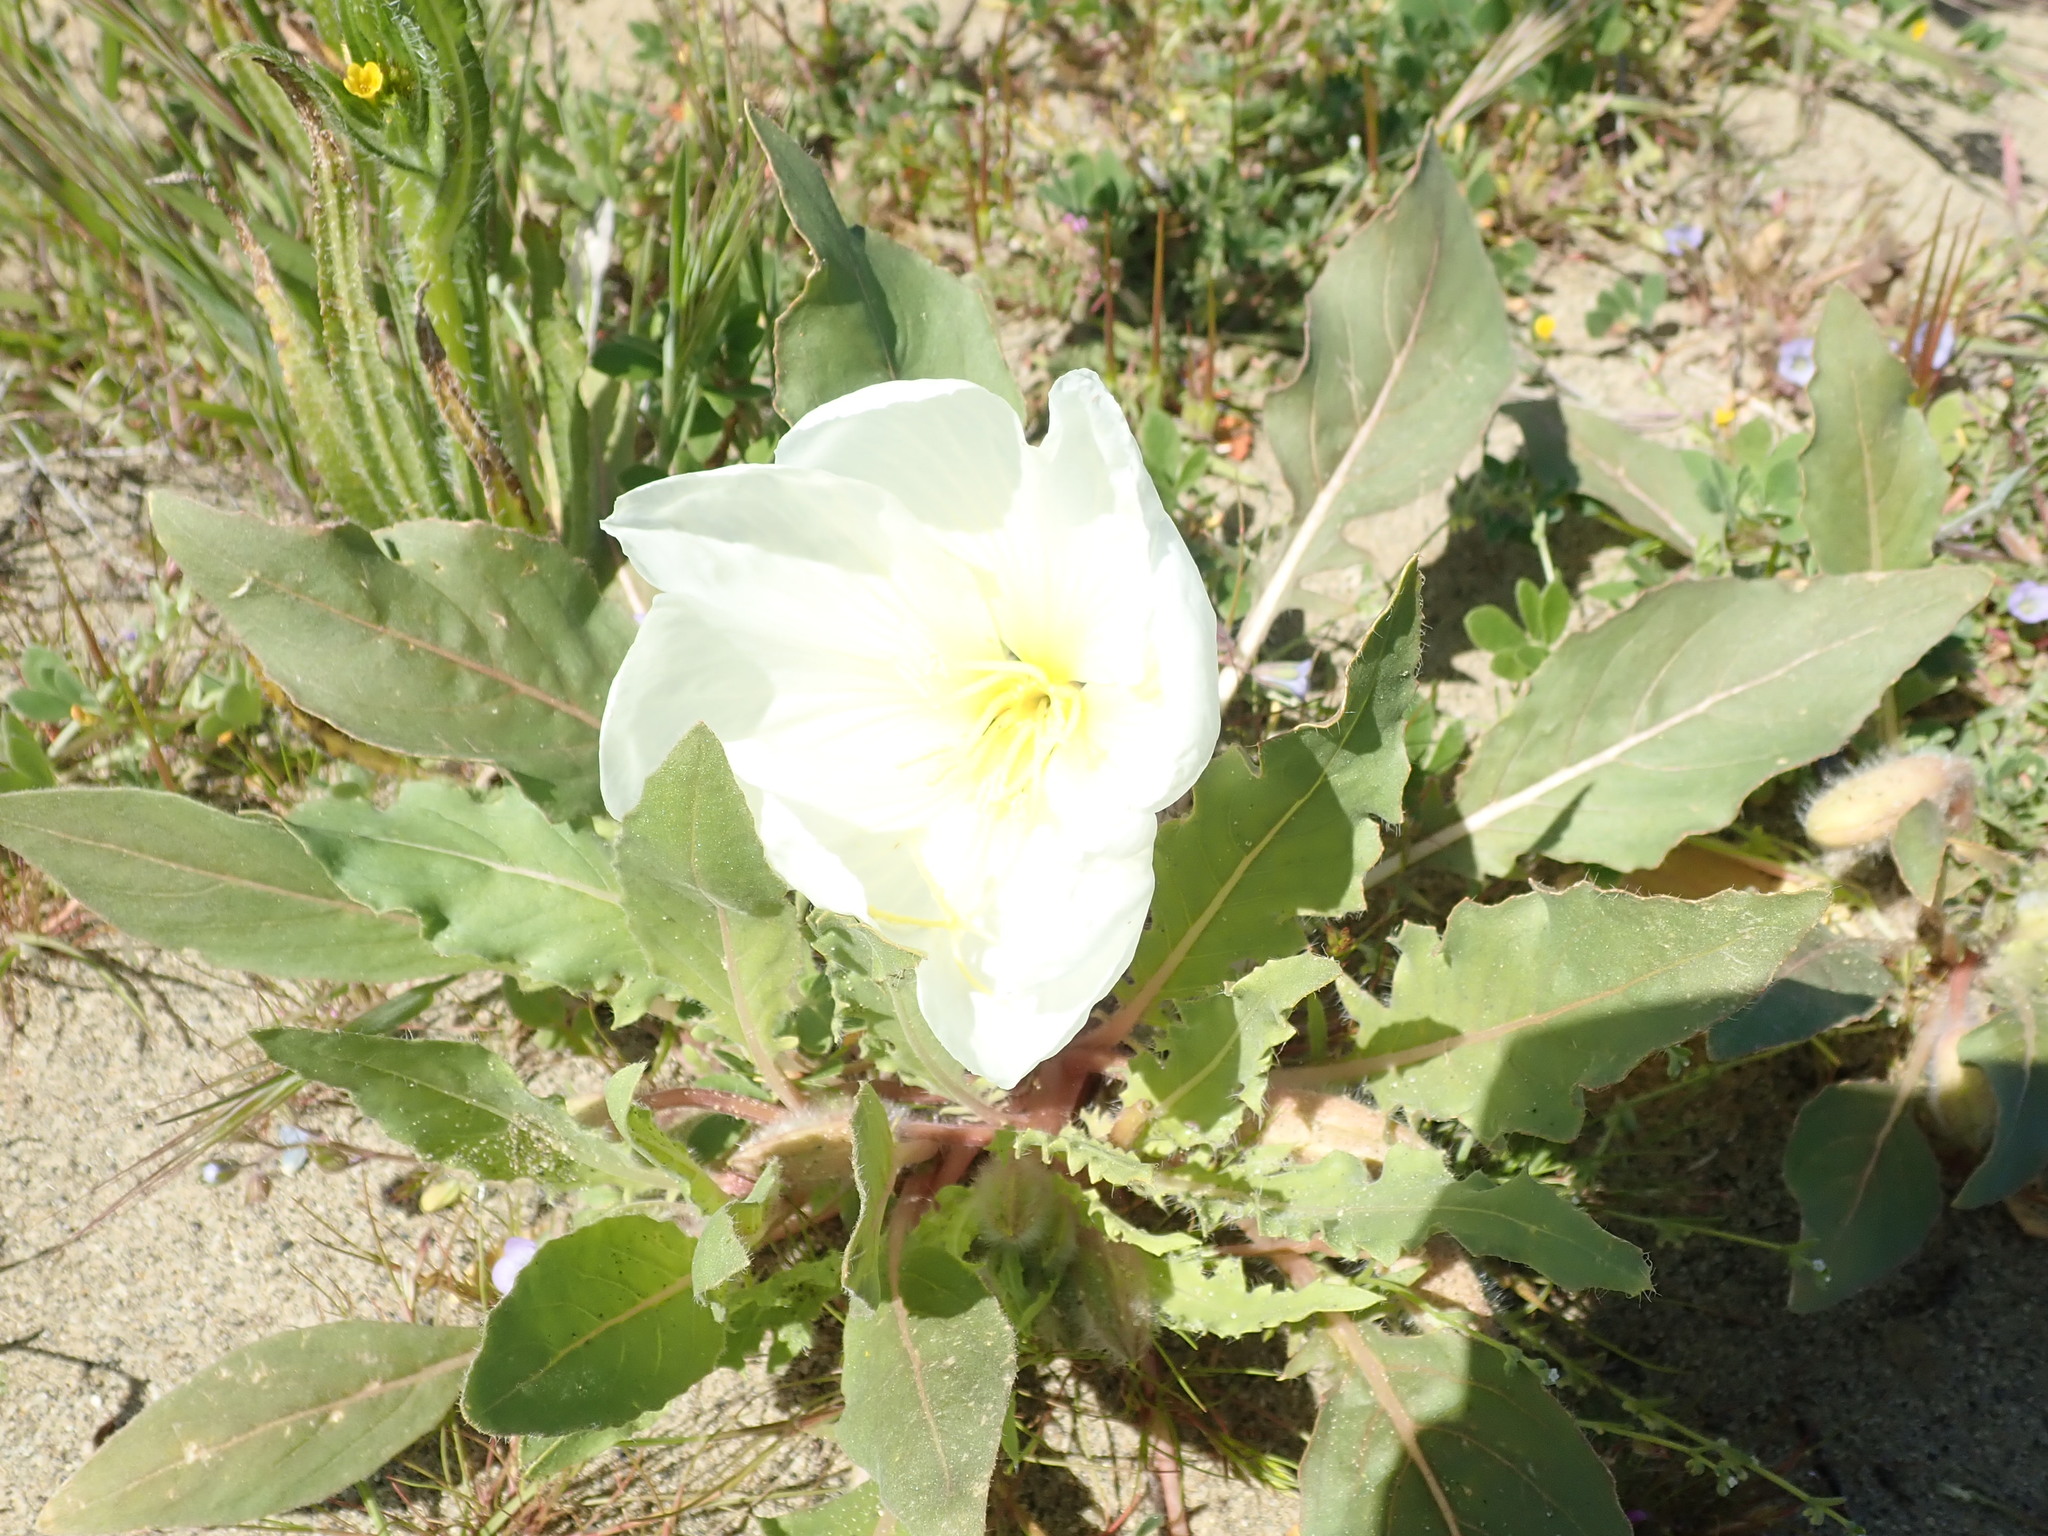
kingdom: Plantae
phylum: Tracheophyta
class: Magnoliopsida
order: Myrtales
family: Onagraceae
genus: Oenothera
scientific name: Oenothera deltoides
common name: Basket evening-primrose
